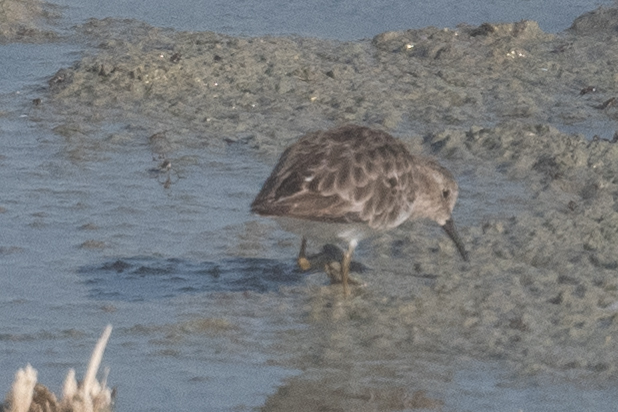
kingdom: Animalia
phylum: Chordata
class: Aves
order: Charadriiformes
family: Scolopacidae
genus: Calidris
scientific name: Calidris minutilla
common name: Least sandpiper
